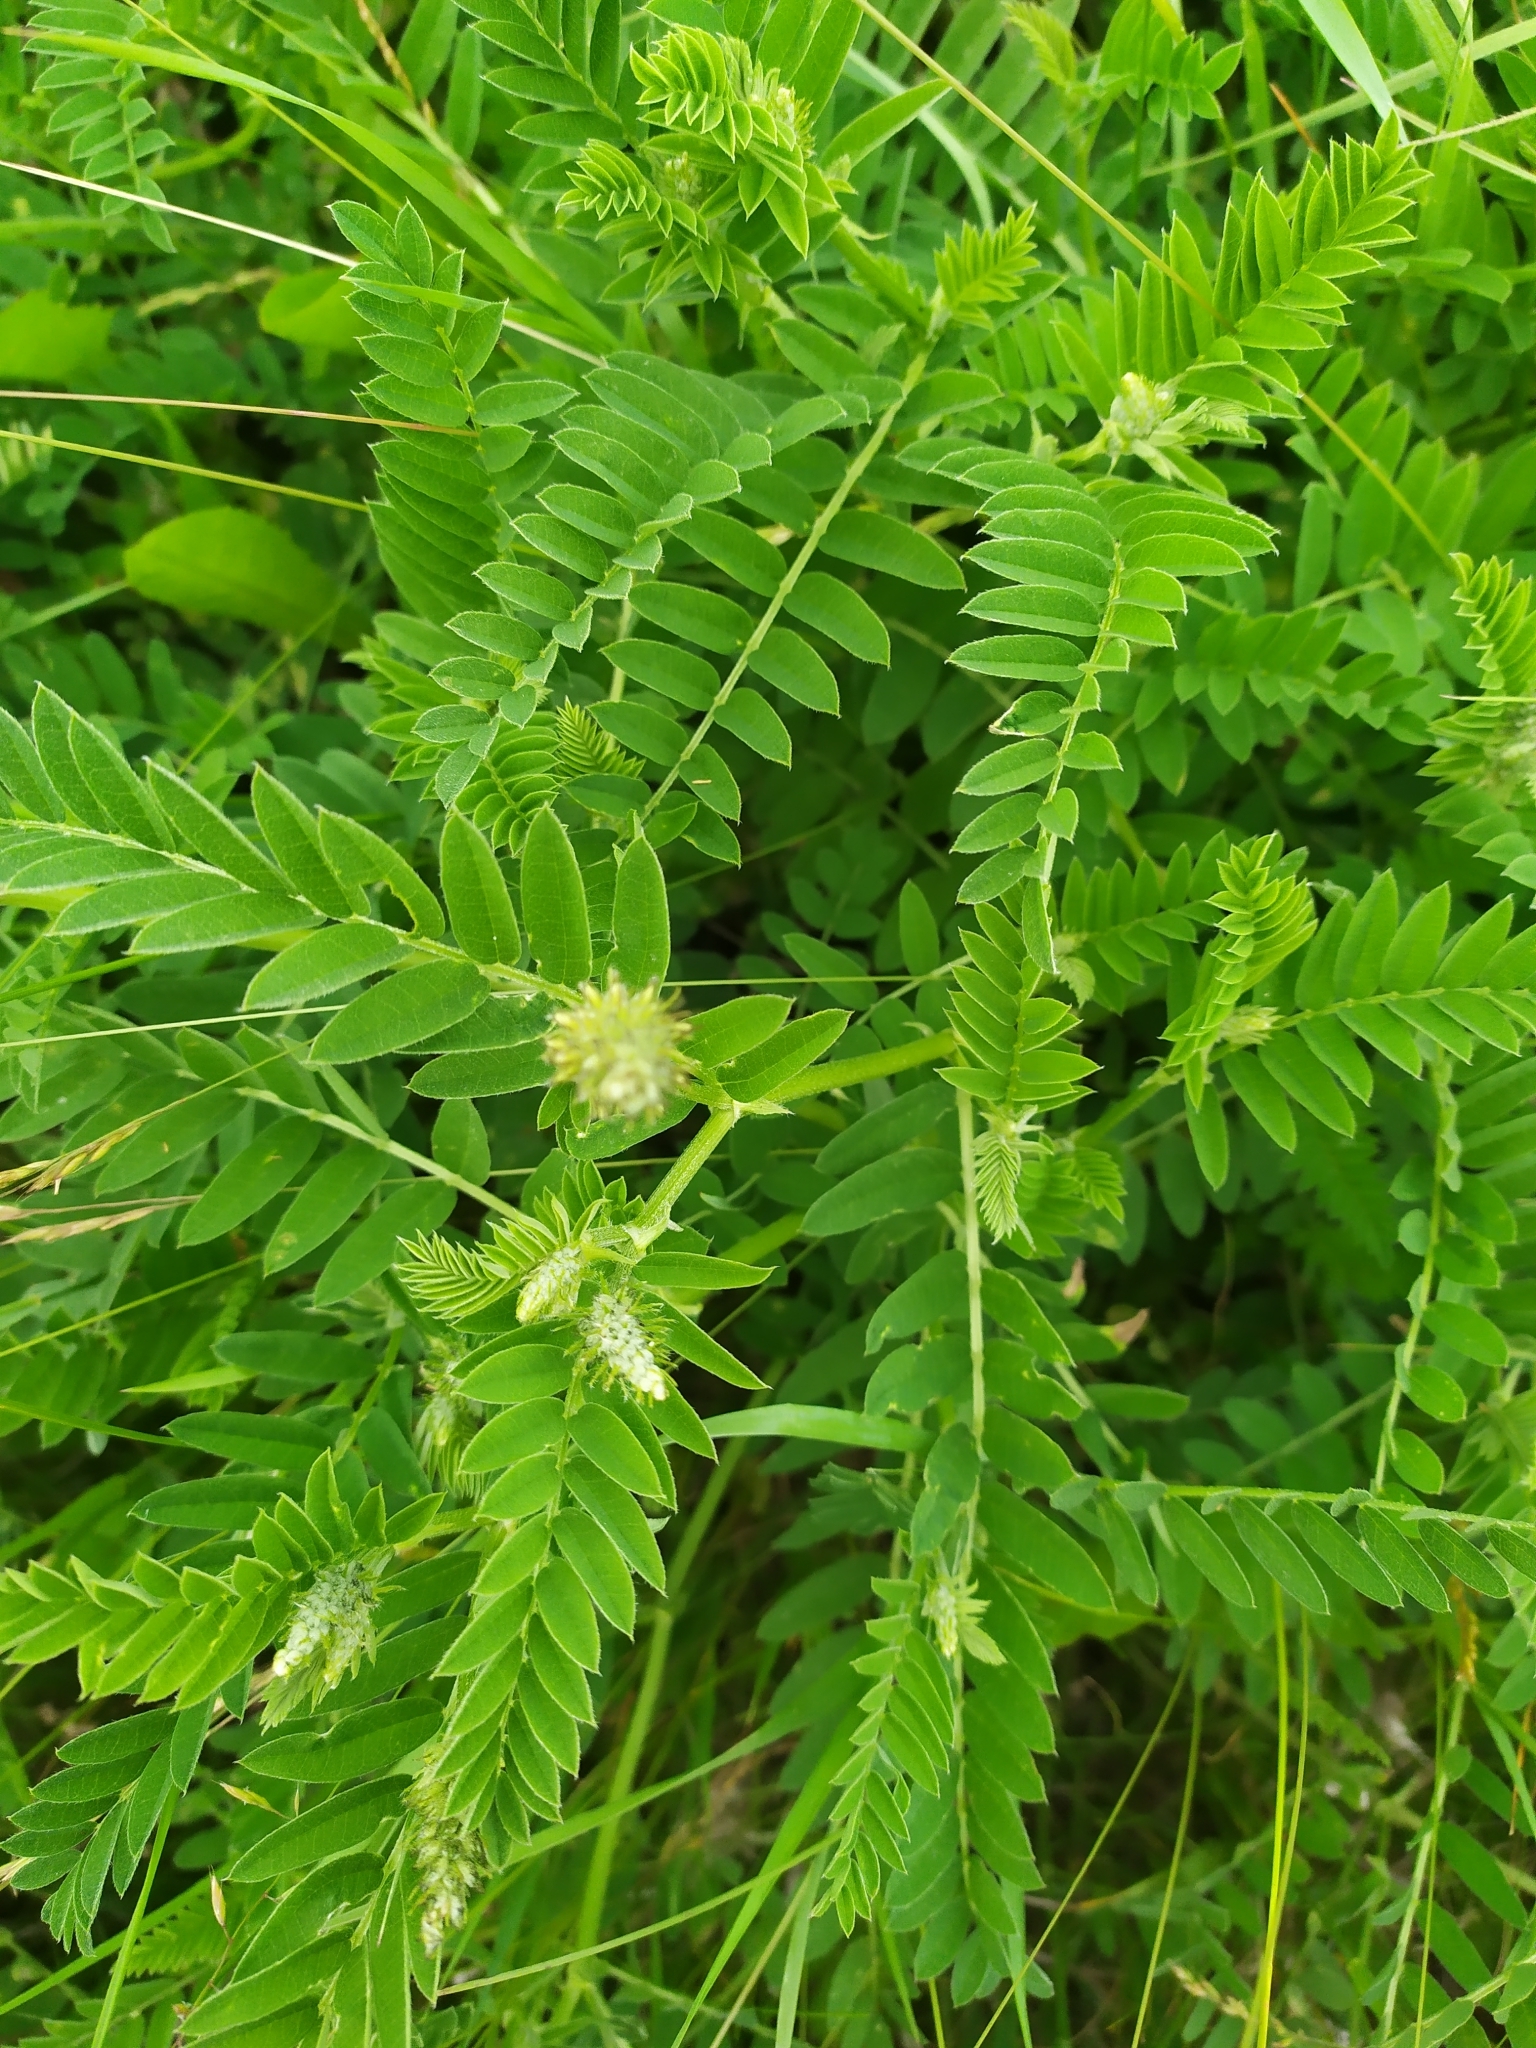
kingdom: Plantae
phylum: Tracheophyta
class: Magnoliopsida
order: Fabales
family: Fabaceae
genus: Astragalus
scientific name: Astragalus cicer
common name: Chick-pea milk-vetch
